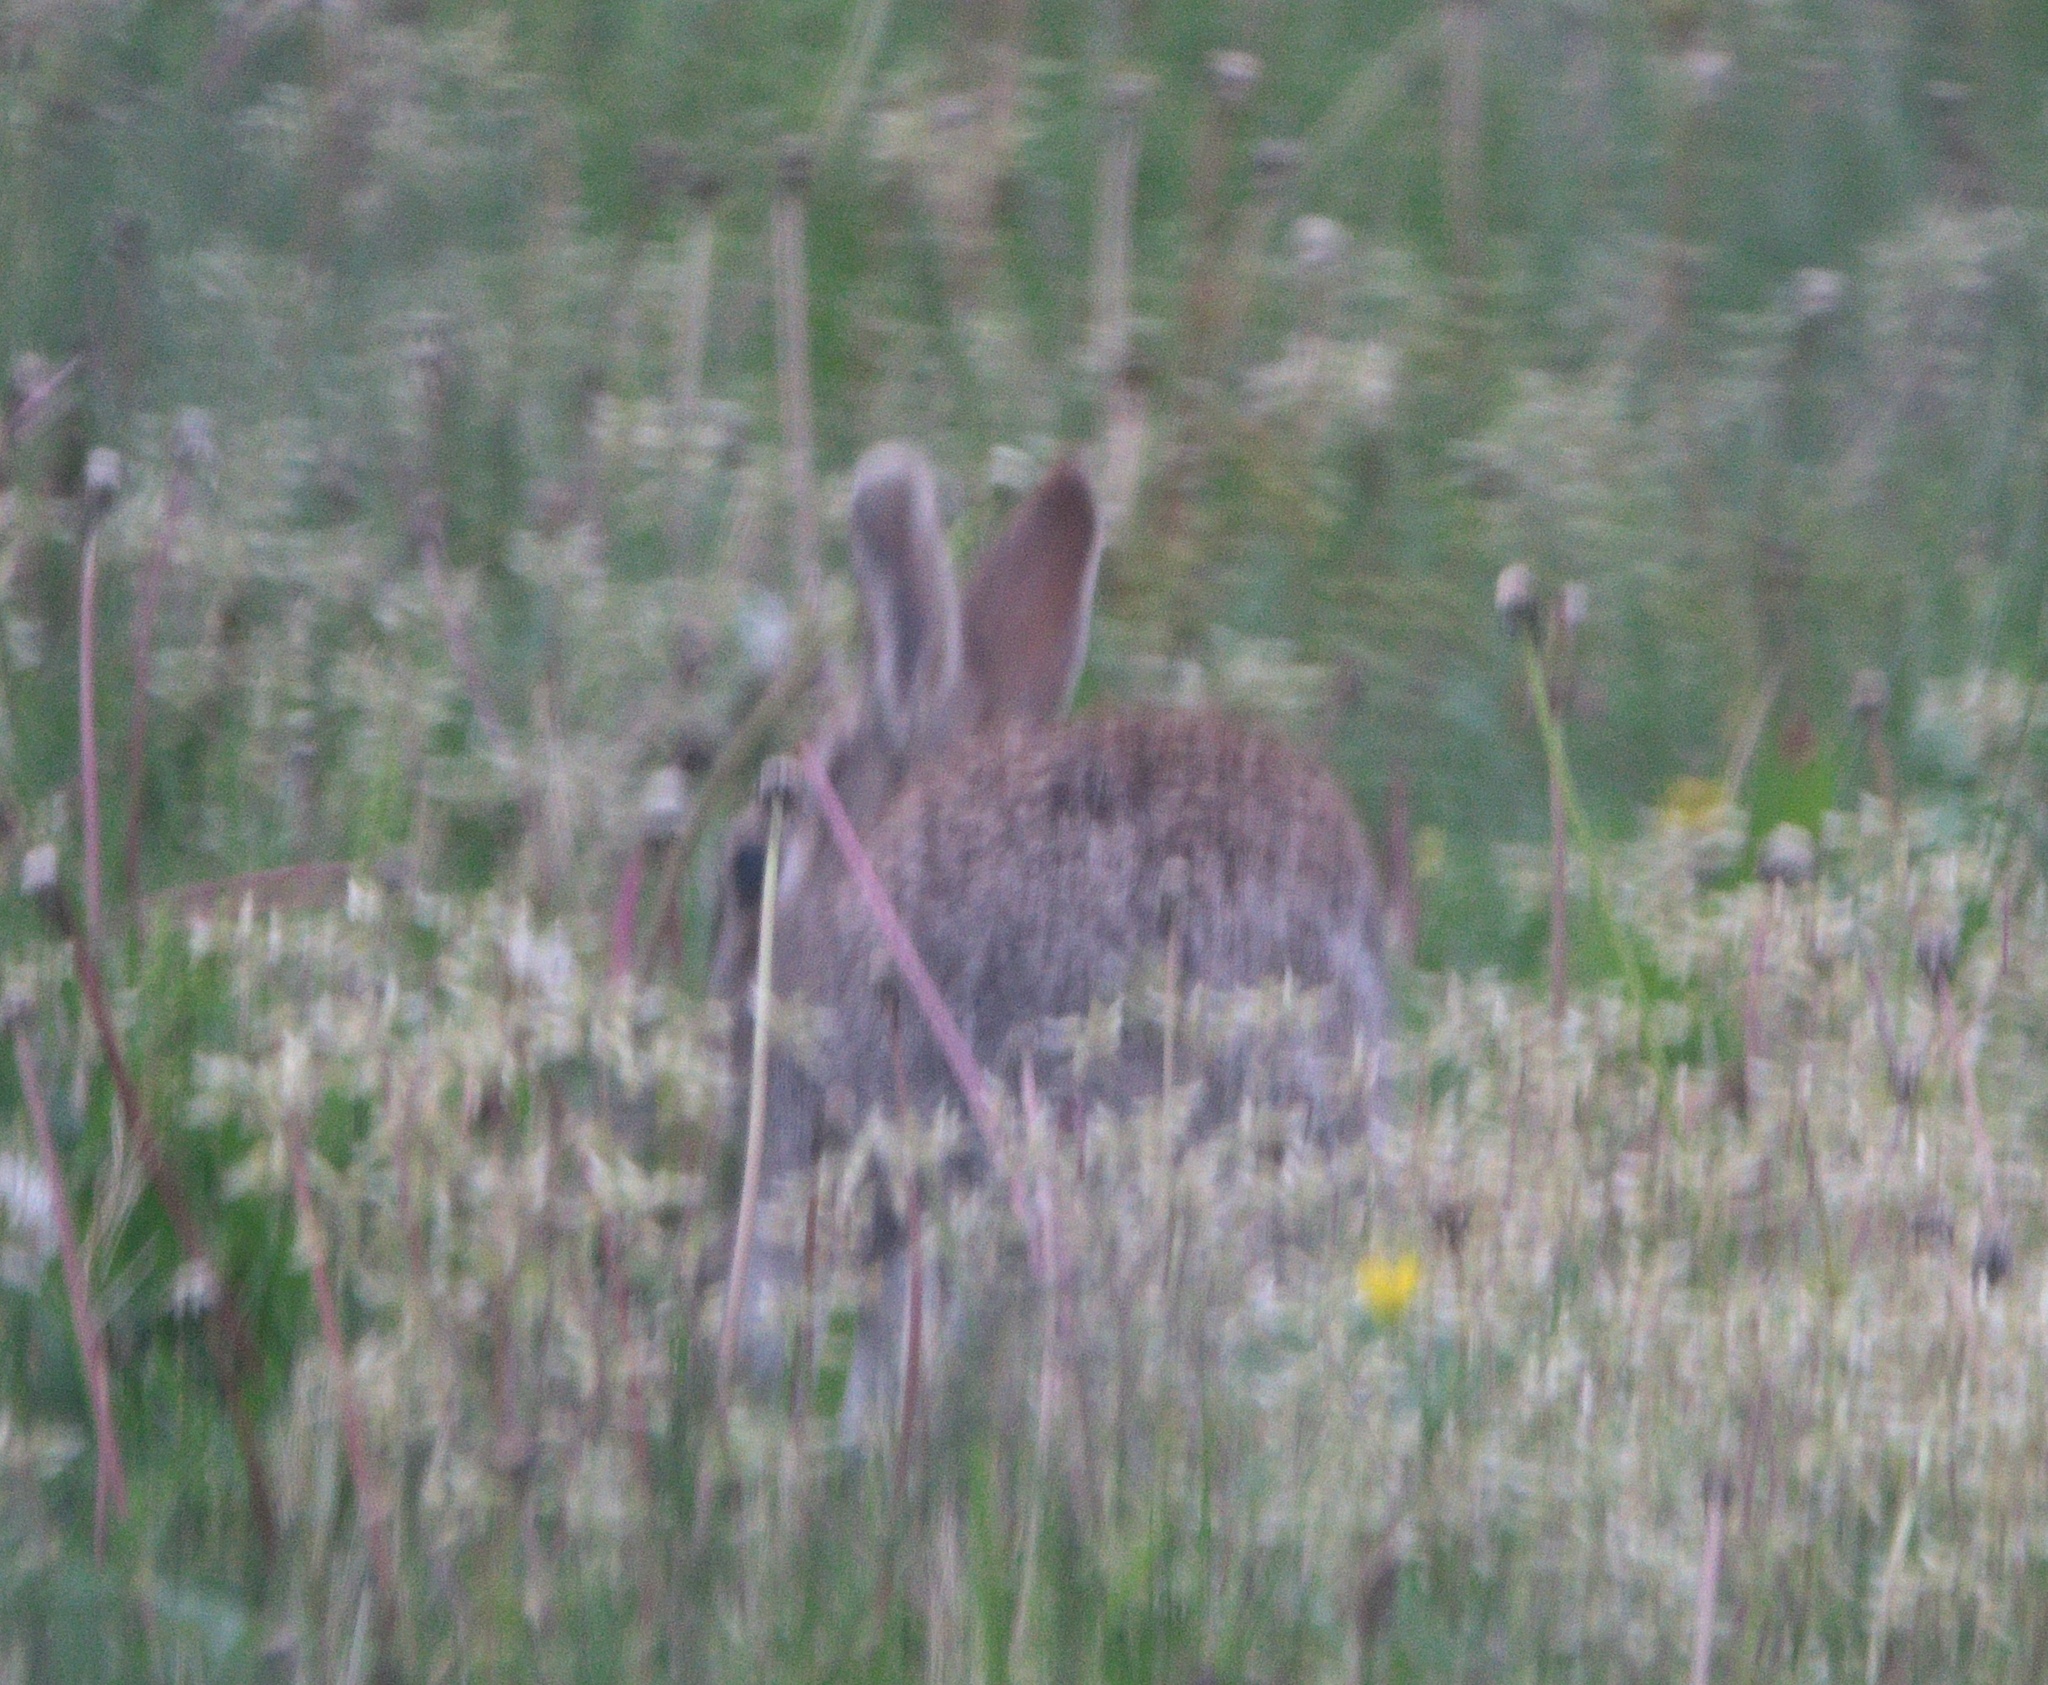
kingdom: Animalia
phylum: Chordata
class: Mammalia
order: Lagomorpha
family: Leporidae
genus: Sylvilagus
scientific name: Sylvilagus floridanus
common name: Eastern cottontail
